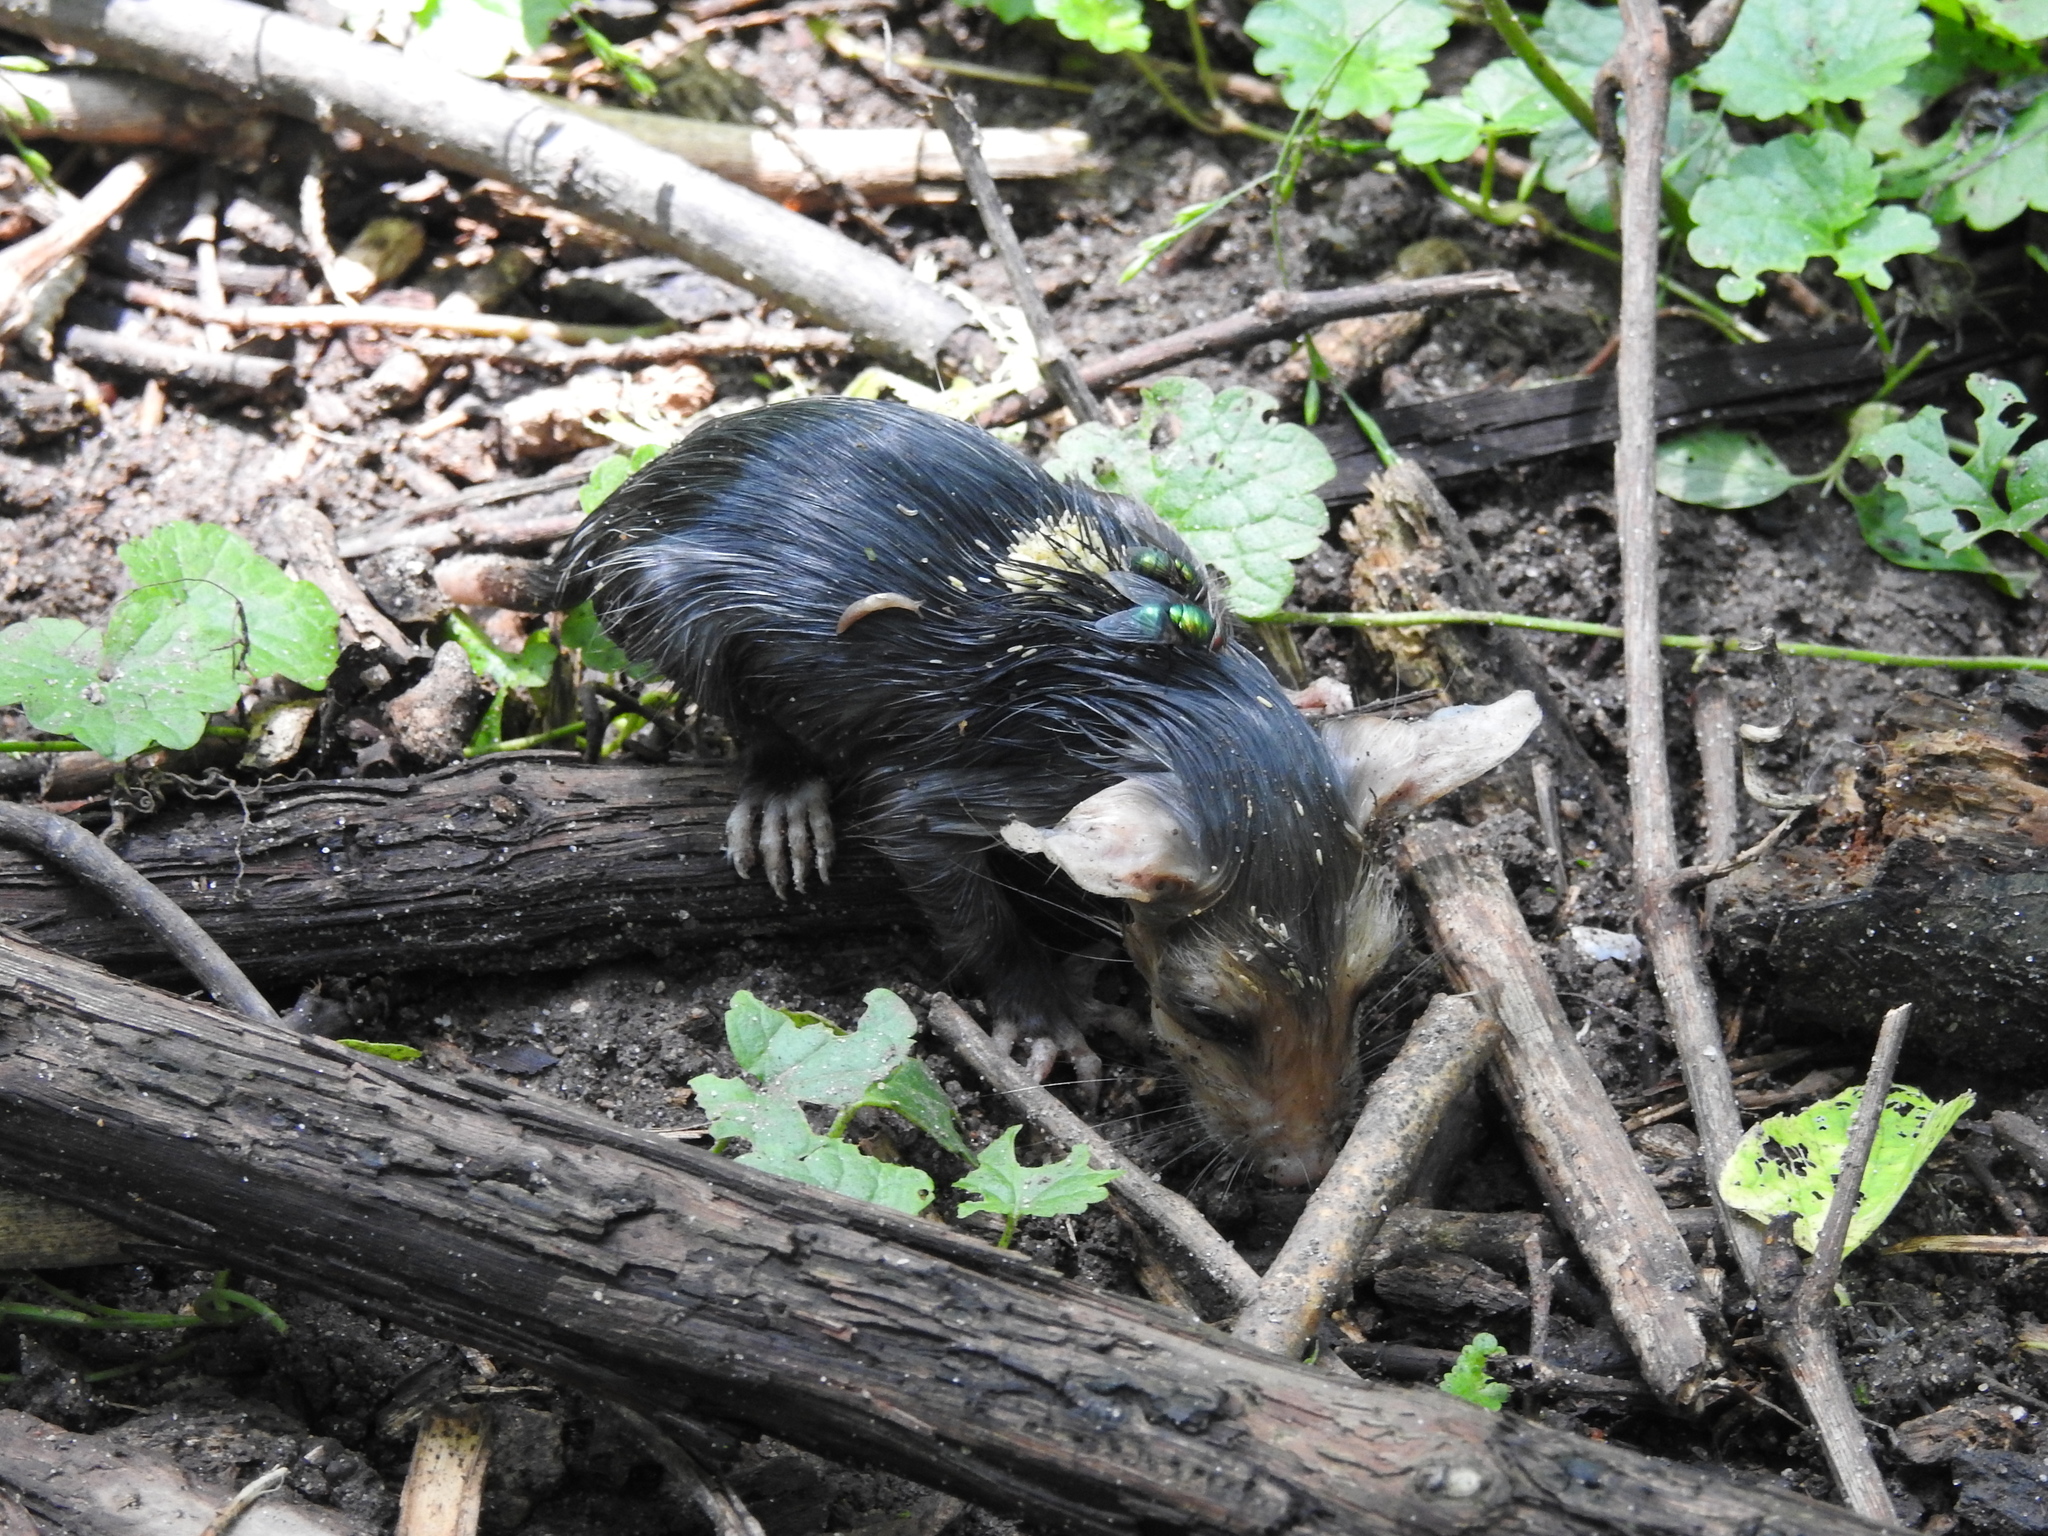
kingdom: Animalia
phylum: Chordata
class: Mammalia
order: Didelphimorphia
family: Didelphidae
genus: Didelphis
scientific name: Didelphis virginiana
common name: Virginia opossum
